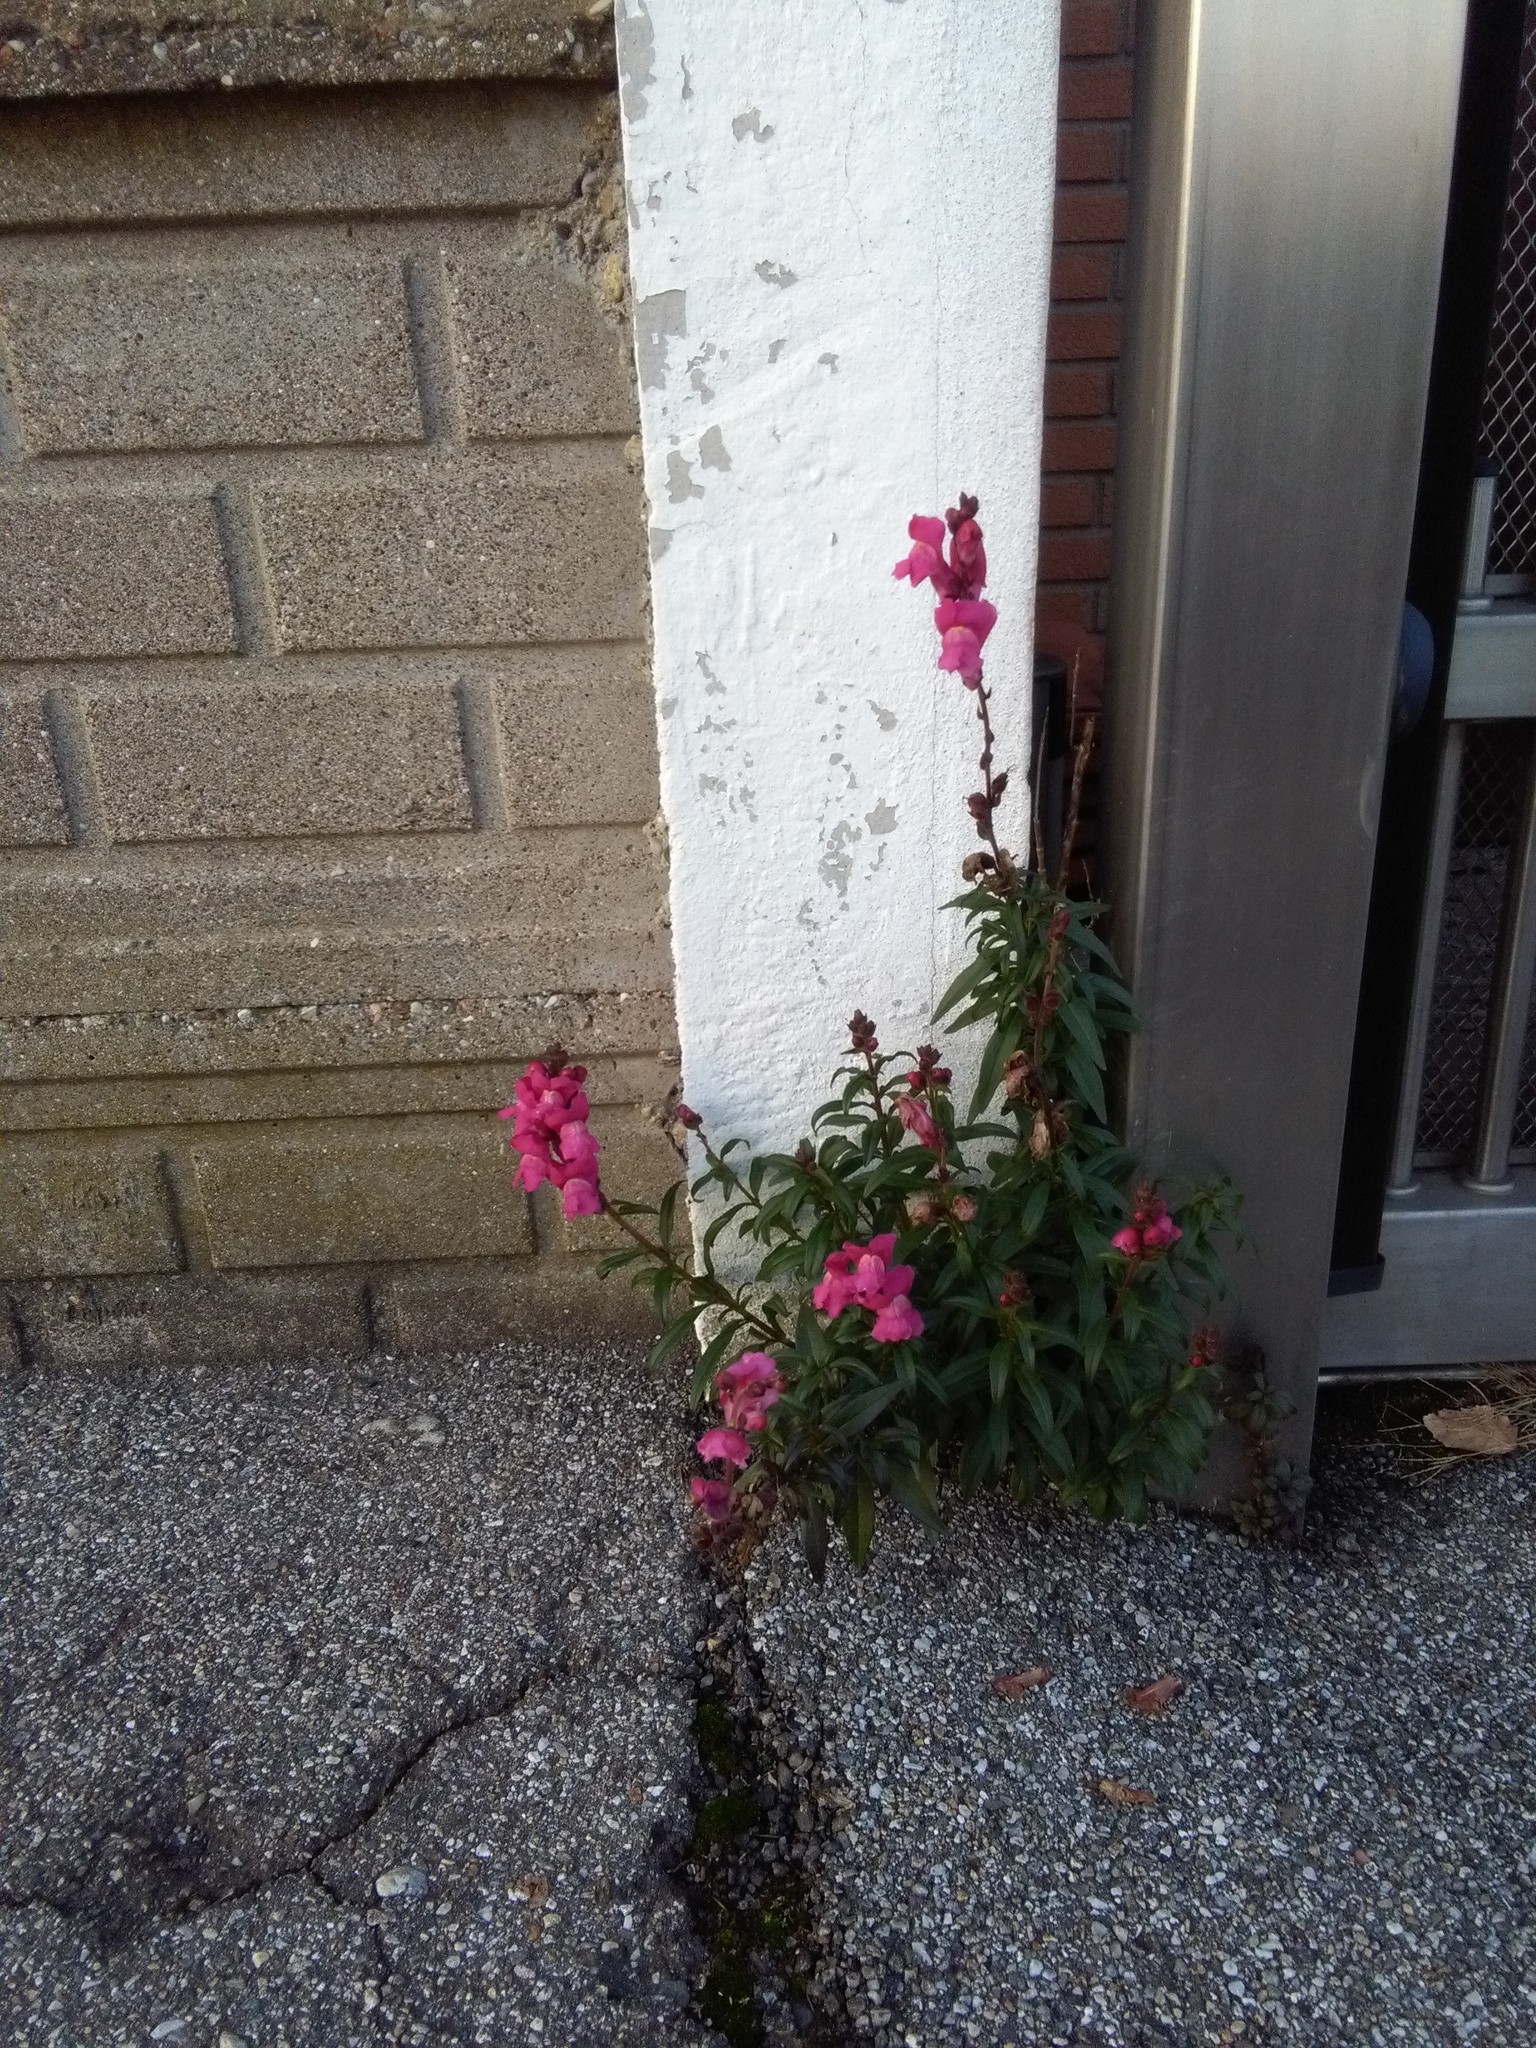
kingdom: Plantae
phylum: Tracheophyta
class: Magnoliopsida
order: Lamiales
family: Plantaginaceae
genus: Antirrhinum
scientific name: Antirrhinum majus
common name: Snapdragon
